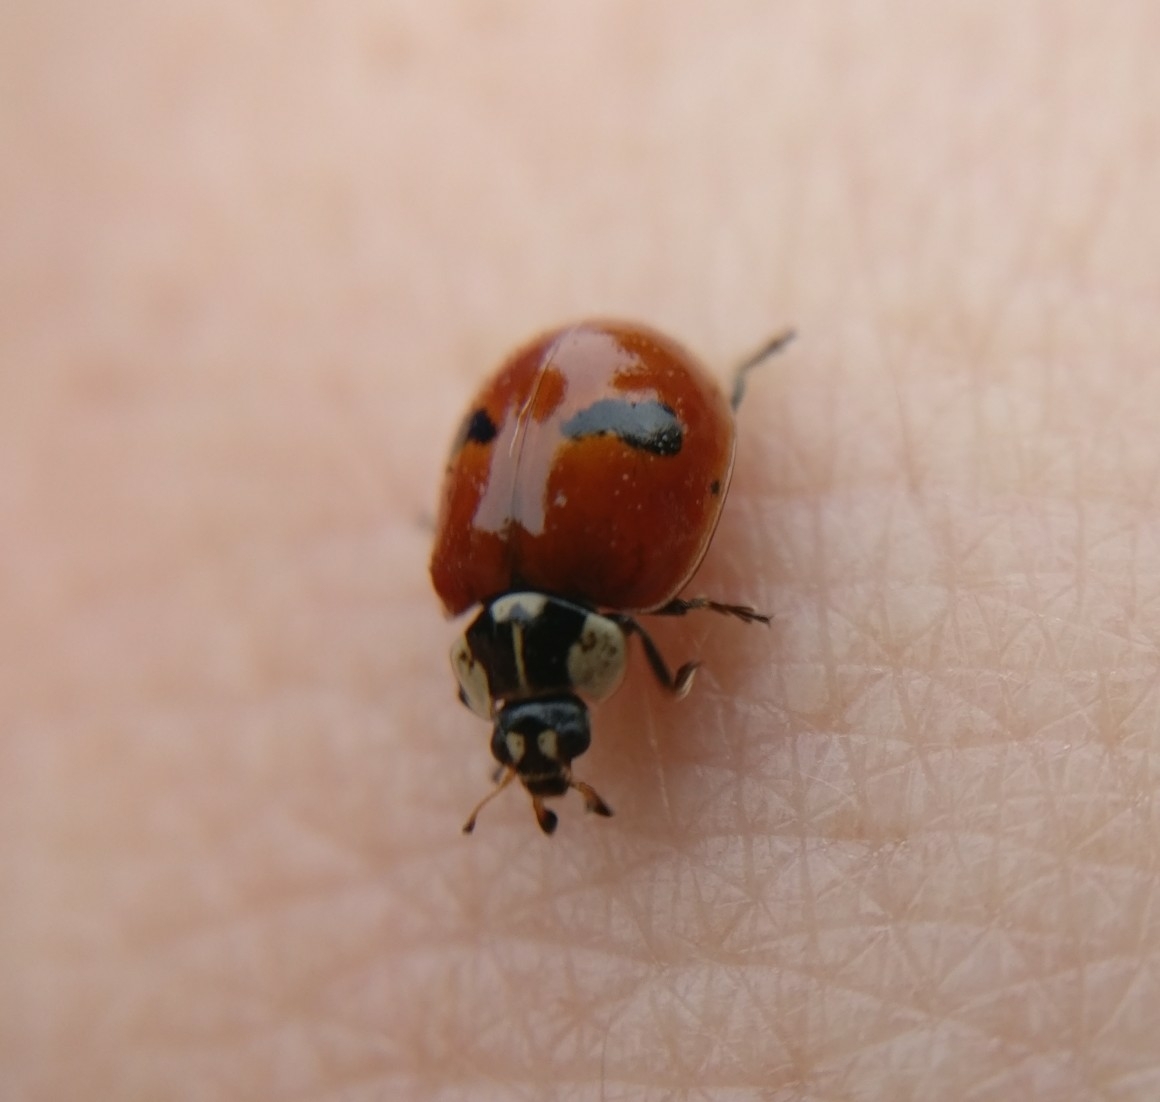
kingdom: Animalia
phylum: Arthropoda
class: Insecta
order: Coleoptera
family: Coccinellidae
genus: Adalia
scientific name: Adalia bipunctata
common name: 2-spot ladybird
